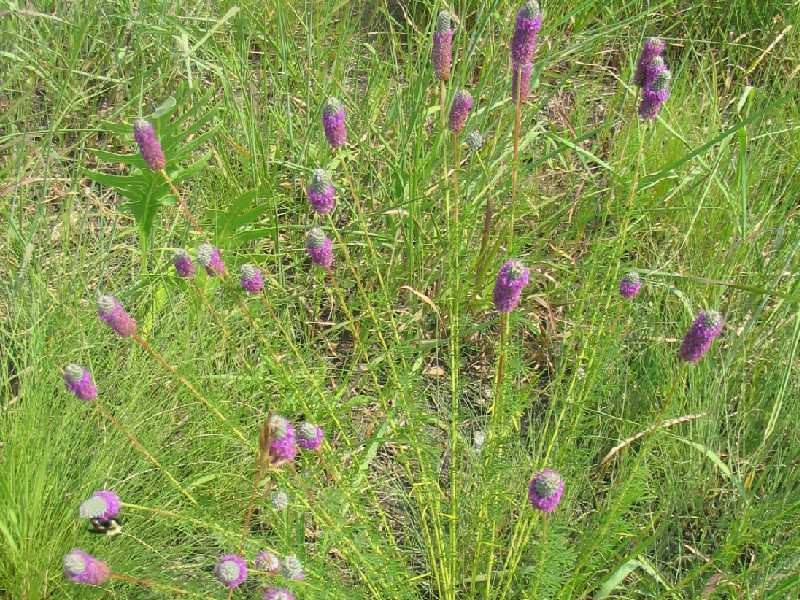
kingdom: Plantae
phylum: Tracheophyta
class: Magnoliopsida
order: Fabales
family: Fabaceae
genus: Dalea
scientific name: Dalea purpurea
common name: Purple prairie-clover
